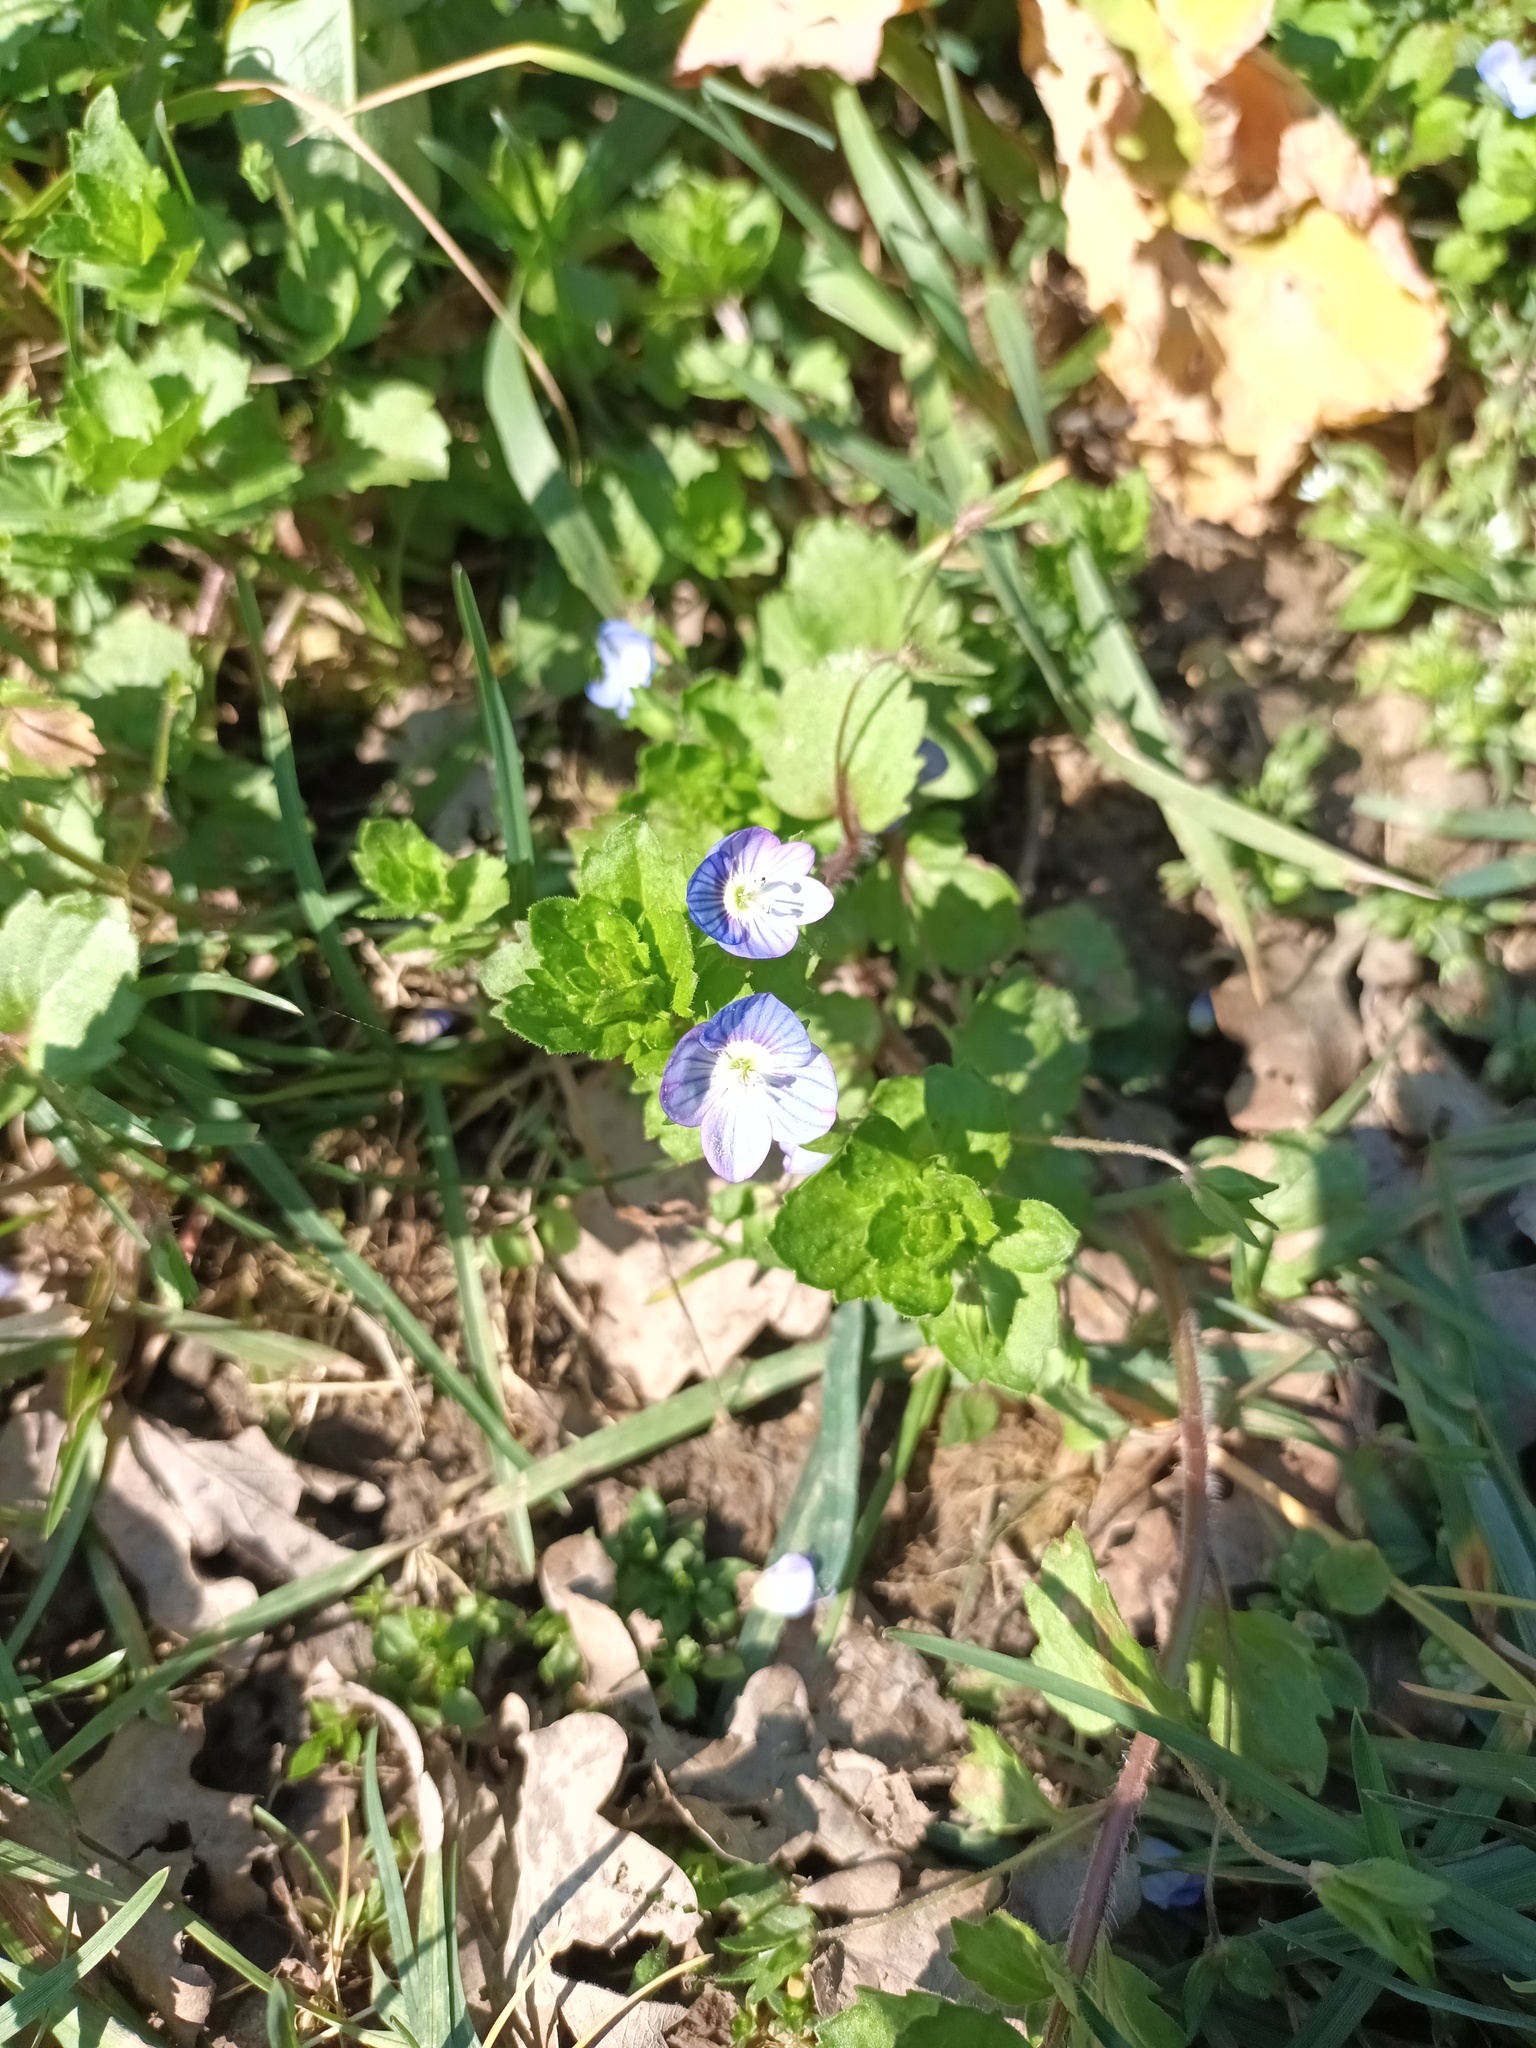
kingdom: Plantae
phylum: Tracheophyta
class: Magnoliopsida
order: Lamiales
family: Plantaginaceae
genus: Veronica
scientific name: Veronica persica
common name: Common field-speedwell
